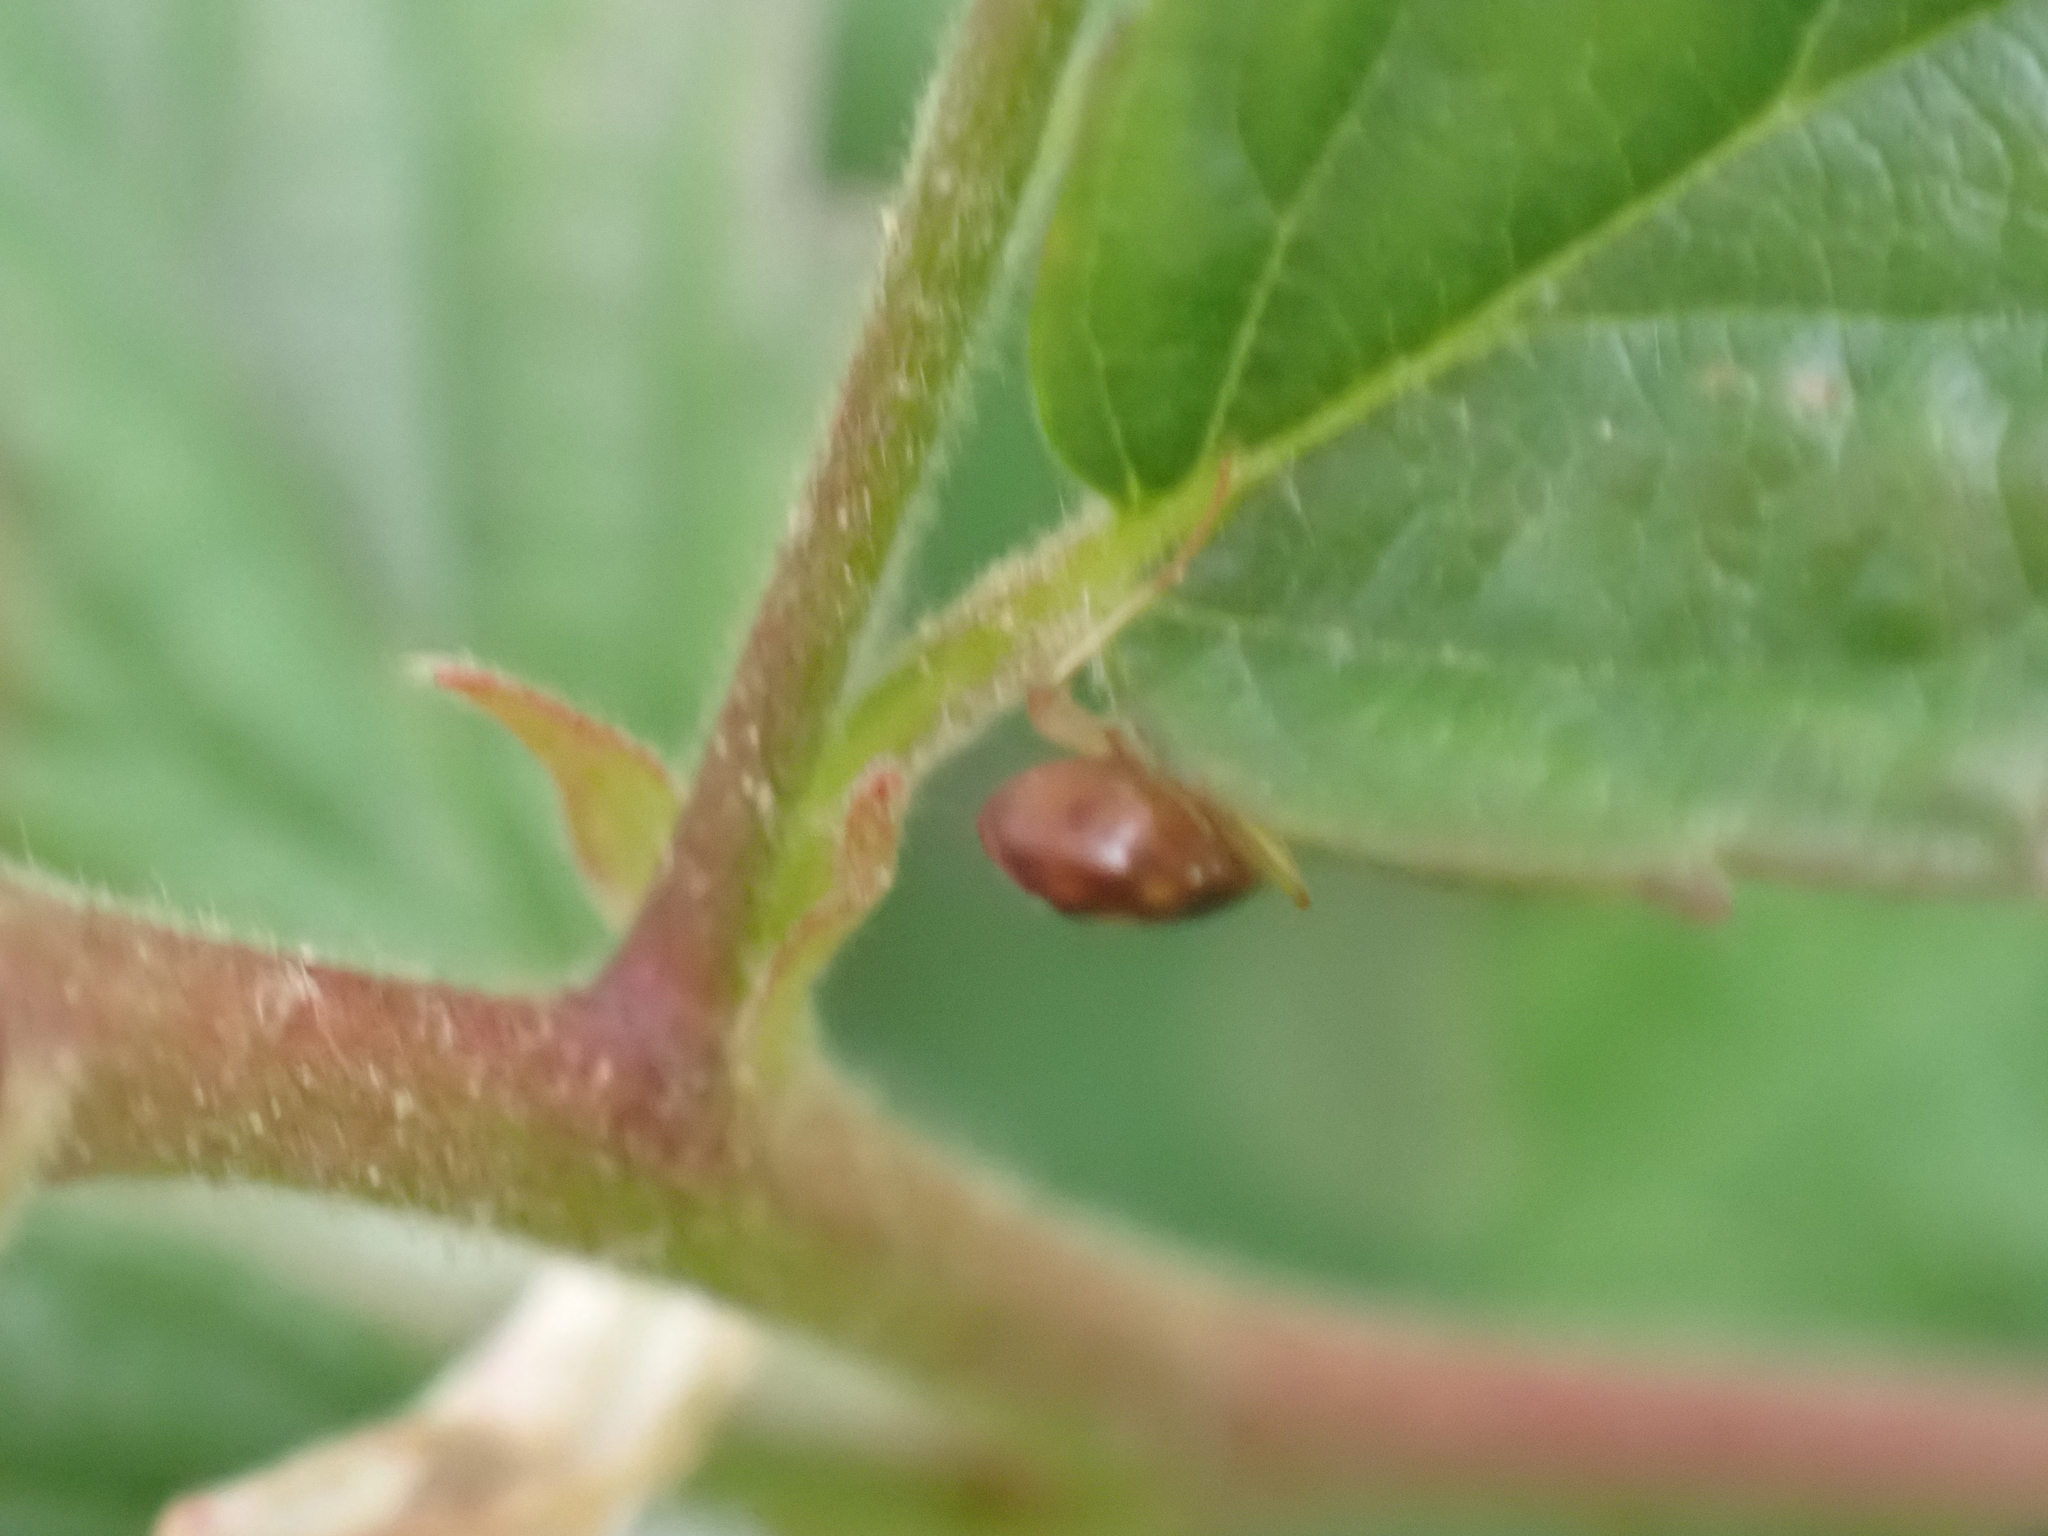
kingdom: Animalia
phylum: Arthropoda
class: Insecta
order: Coleoptera
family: Carabidae
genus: Lebia
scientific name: Lebia ornata
